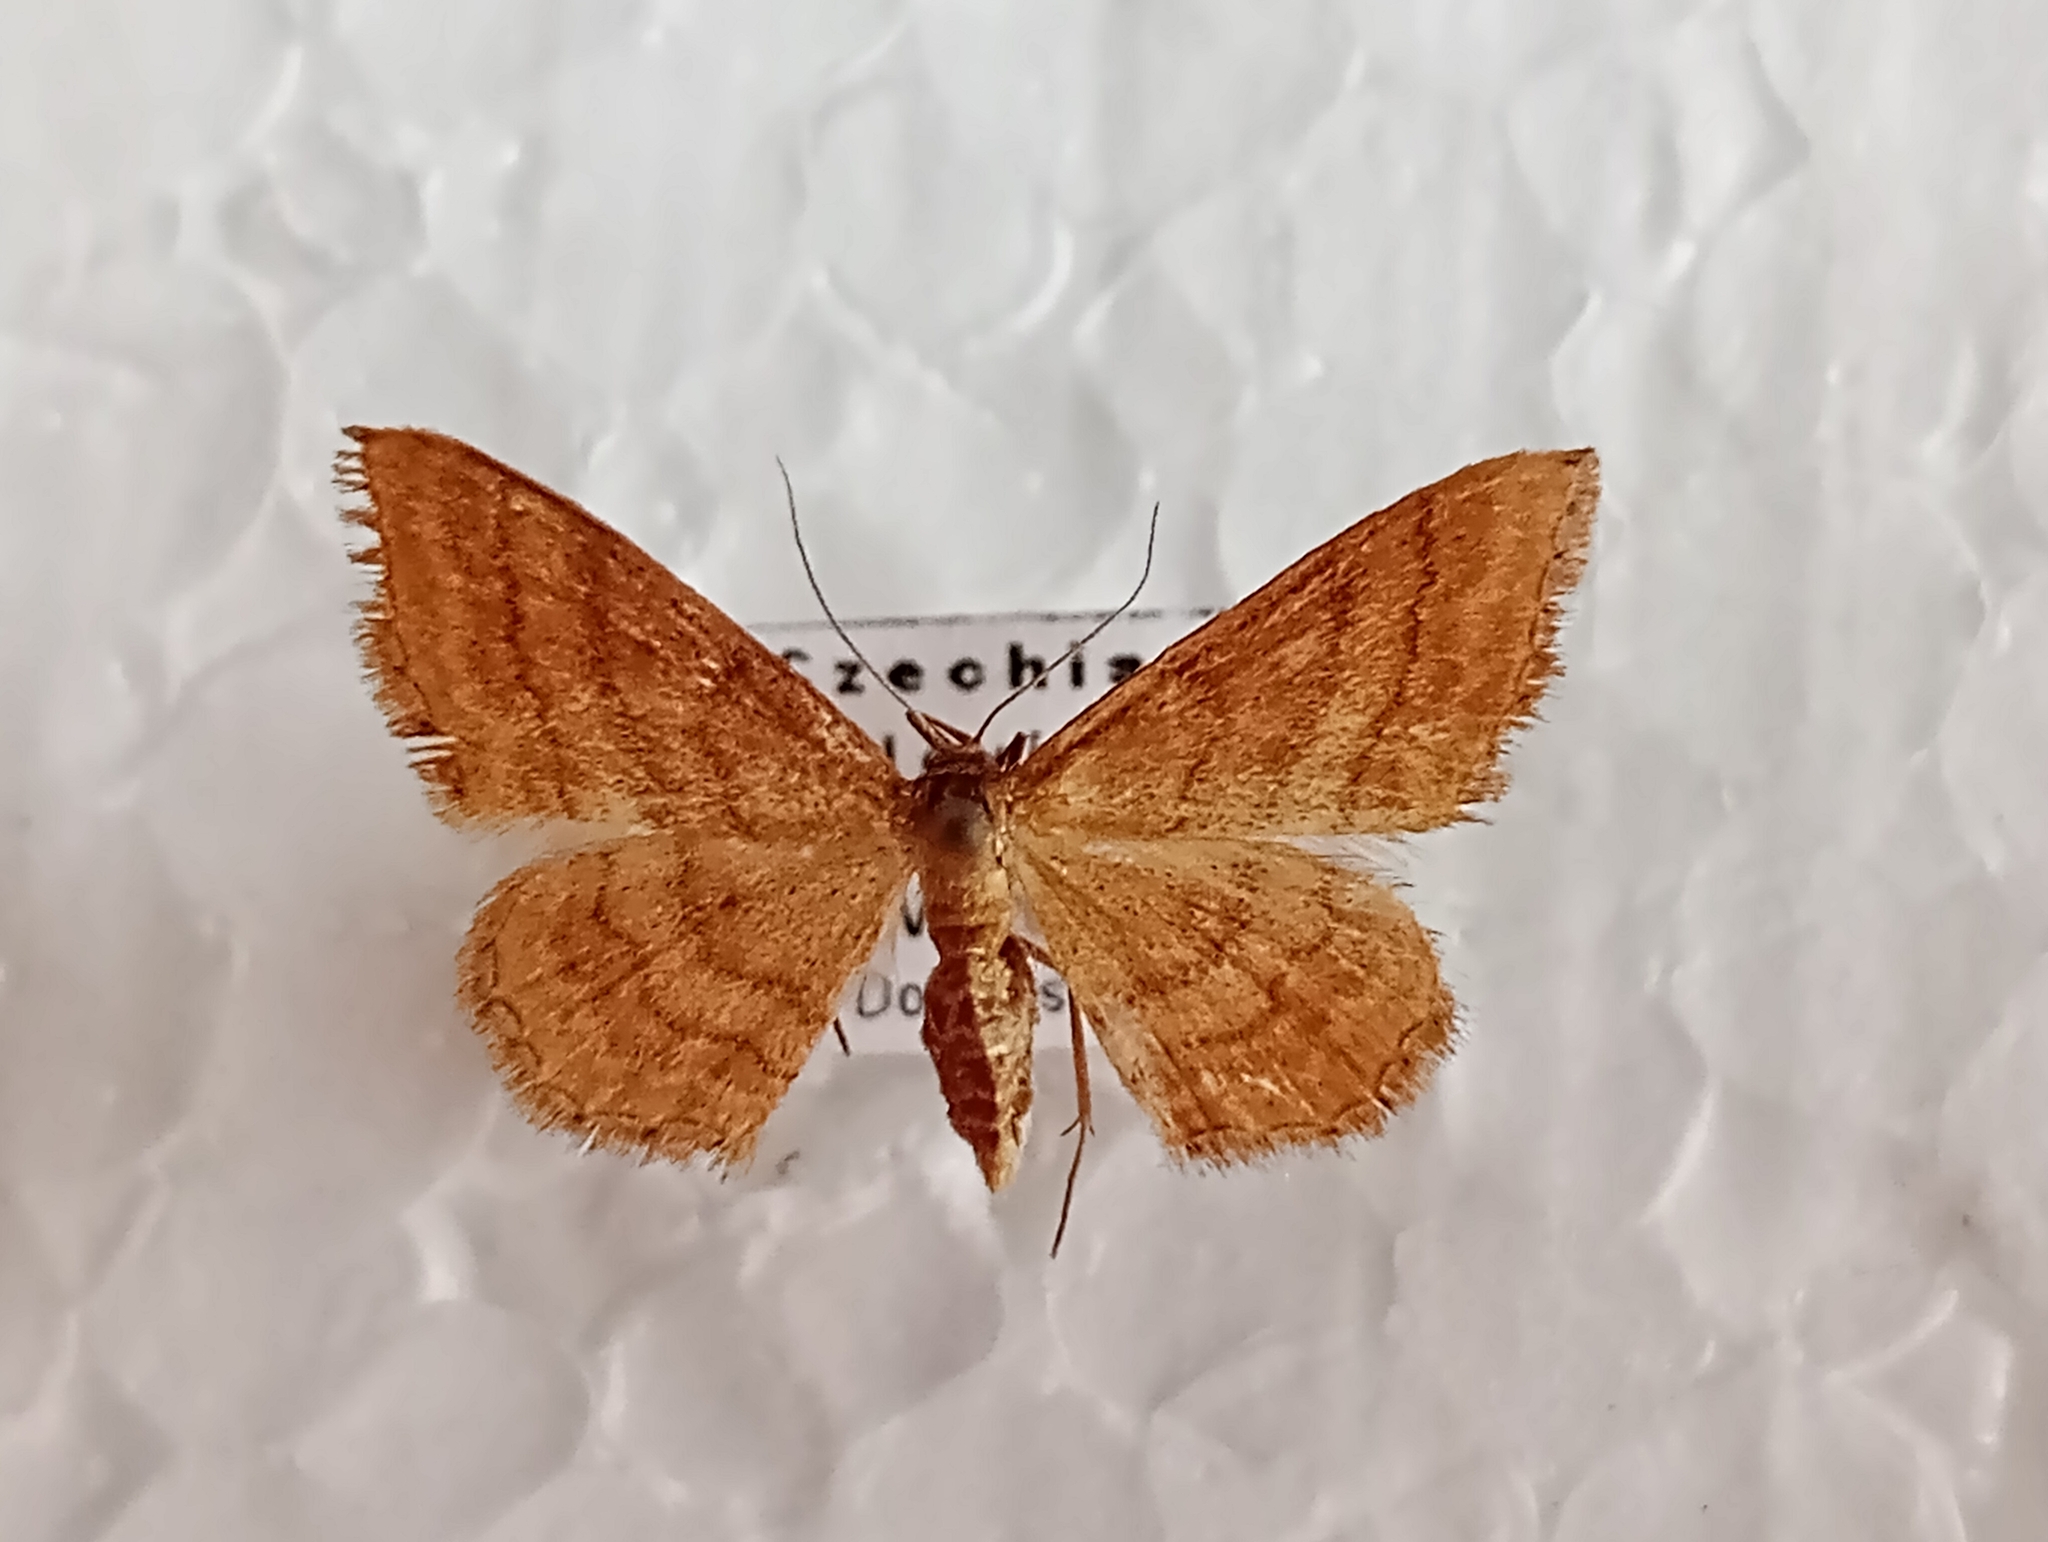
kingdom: Animalia
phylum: Arthropoda
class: Insecta
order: Lepidoptera
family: Geometridae
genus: Idaea
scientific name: Idaea ochrata
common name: Bright wave
